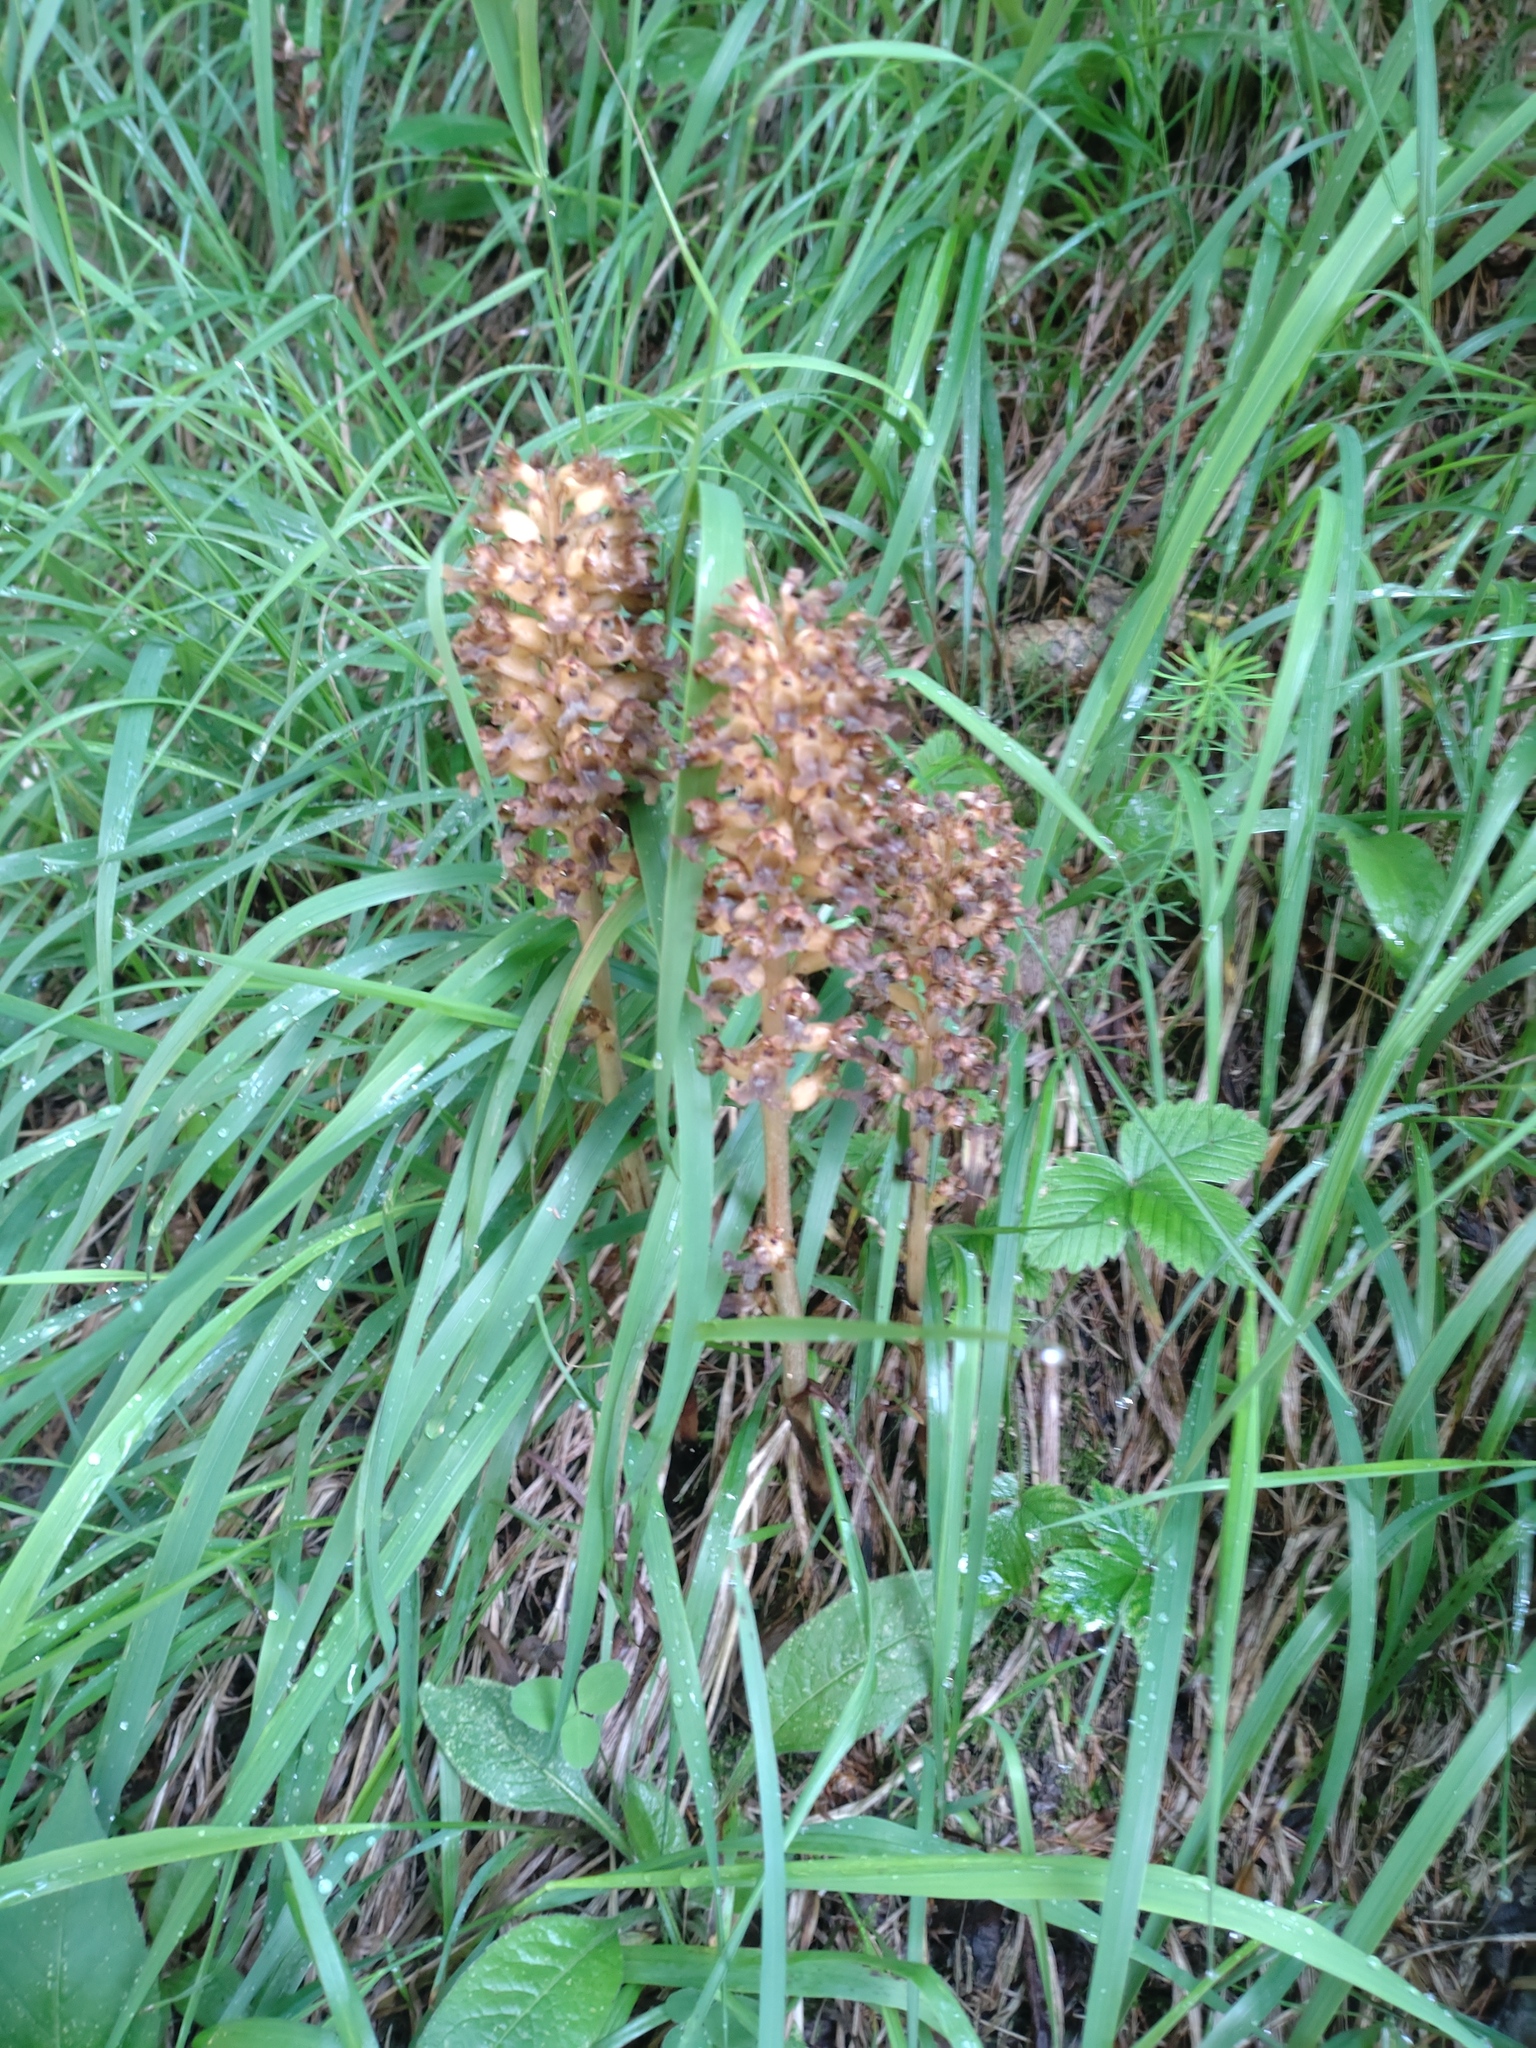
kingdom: Plantae
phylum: Tracheophyta
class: Liliopsida
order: Asparagales
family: Orchidaceae
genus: Neottia
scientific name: Neottia nidus-avis
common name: Bird's-nest orchid
